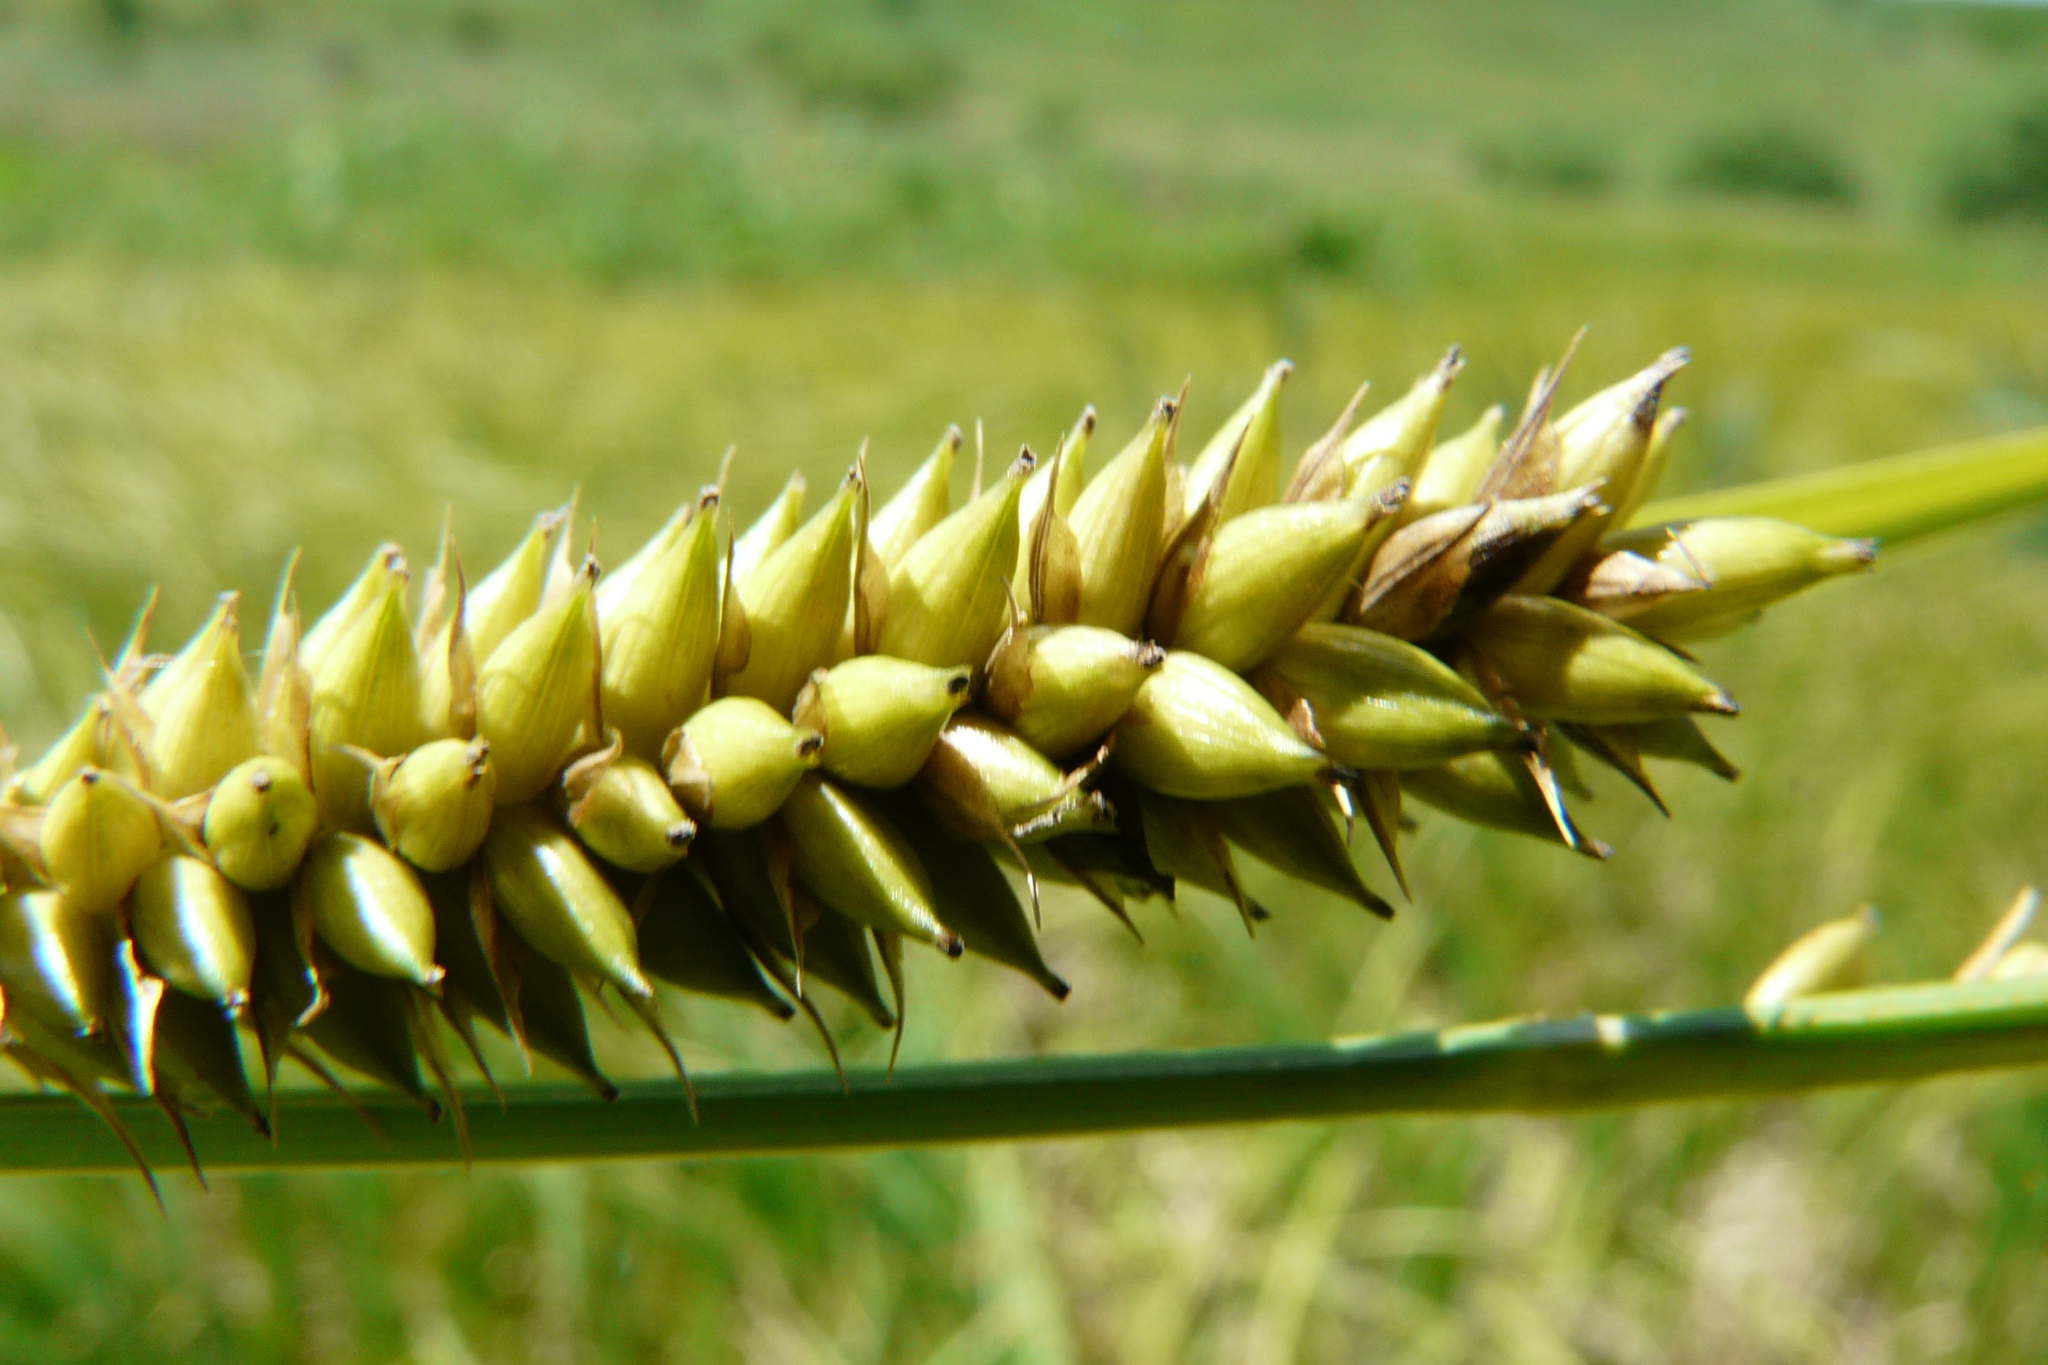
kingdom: Plantae
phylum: Tracheophyta
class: Liliopsida
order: Poales
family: Cyperaceae
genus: Carex
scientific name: Carex riparia
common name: Greater pond-sedge
